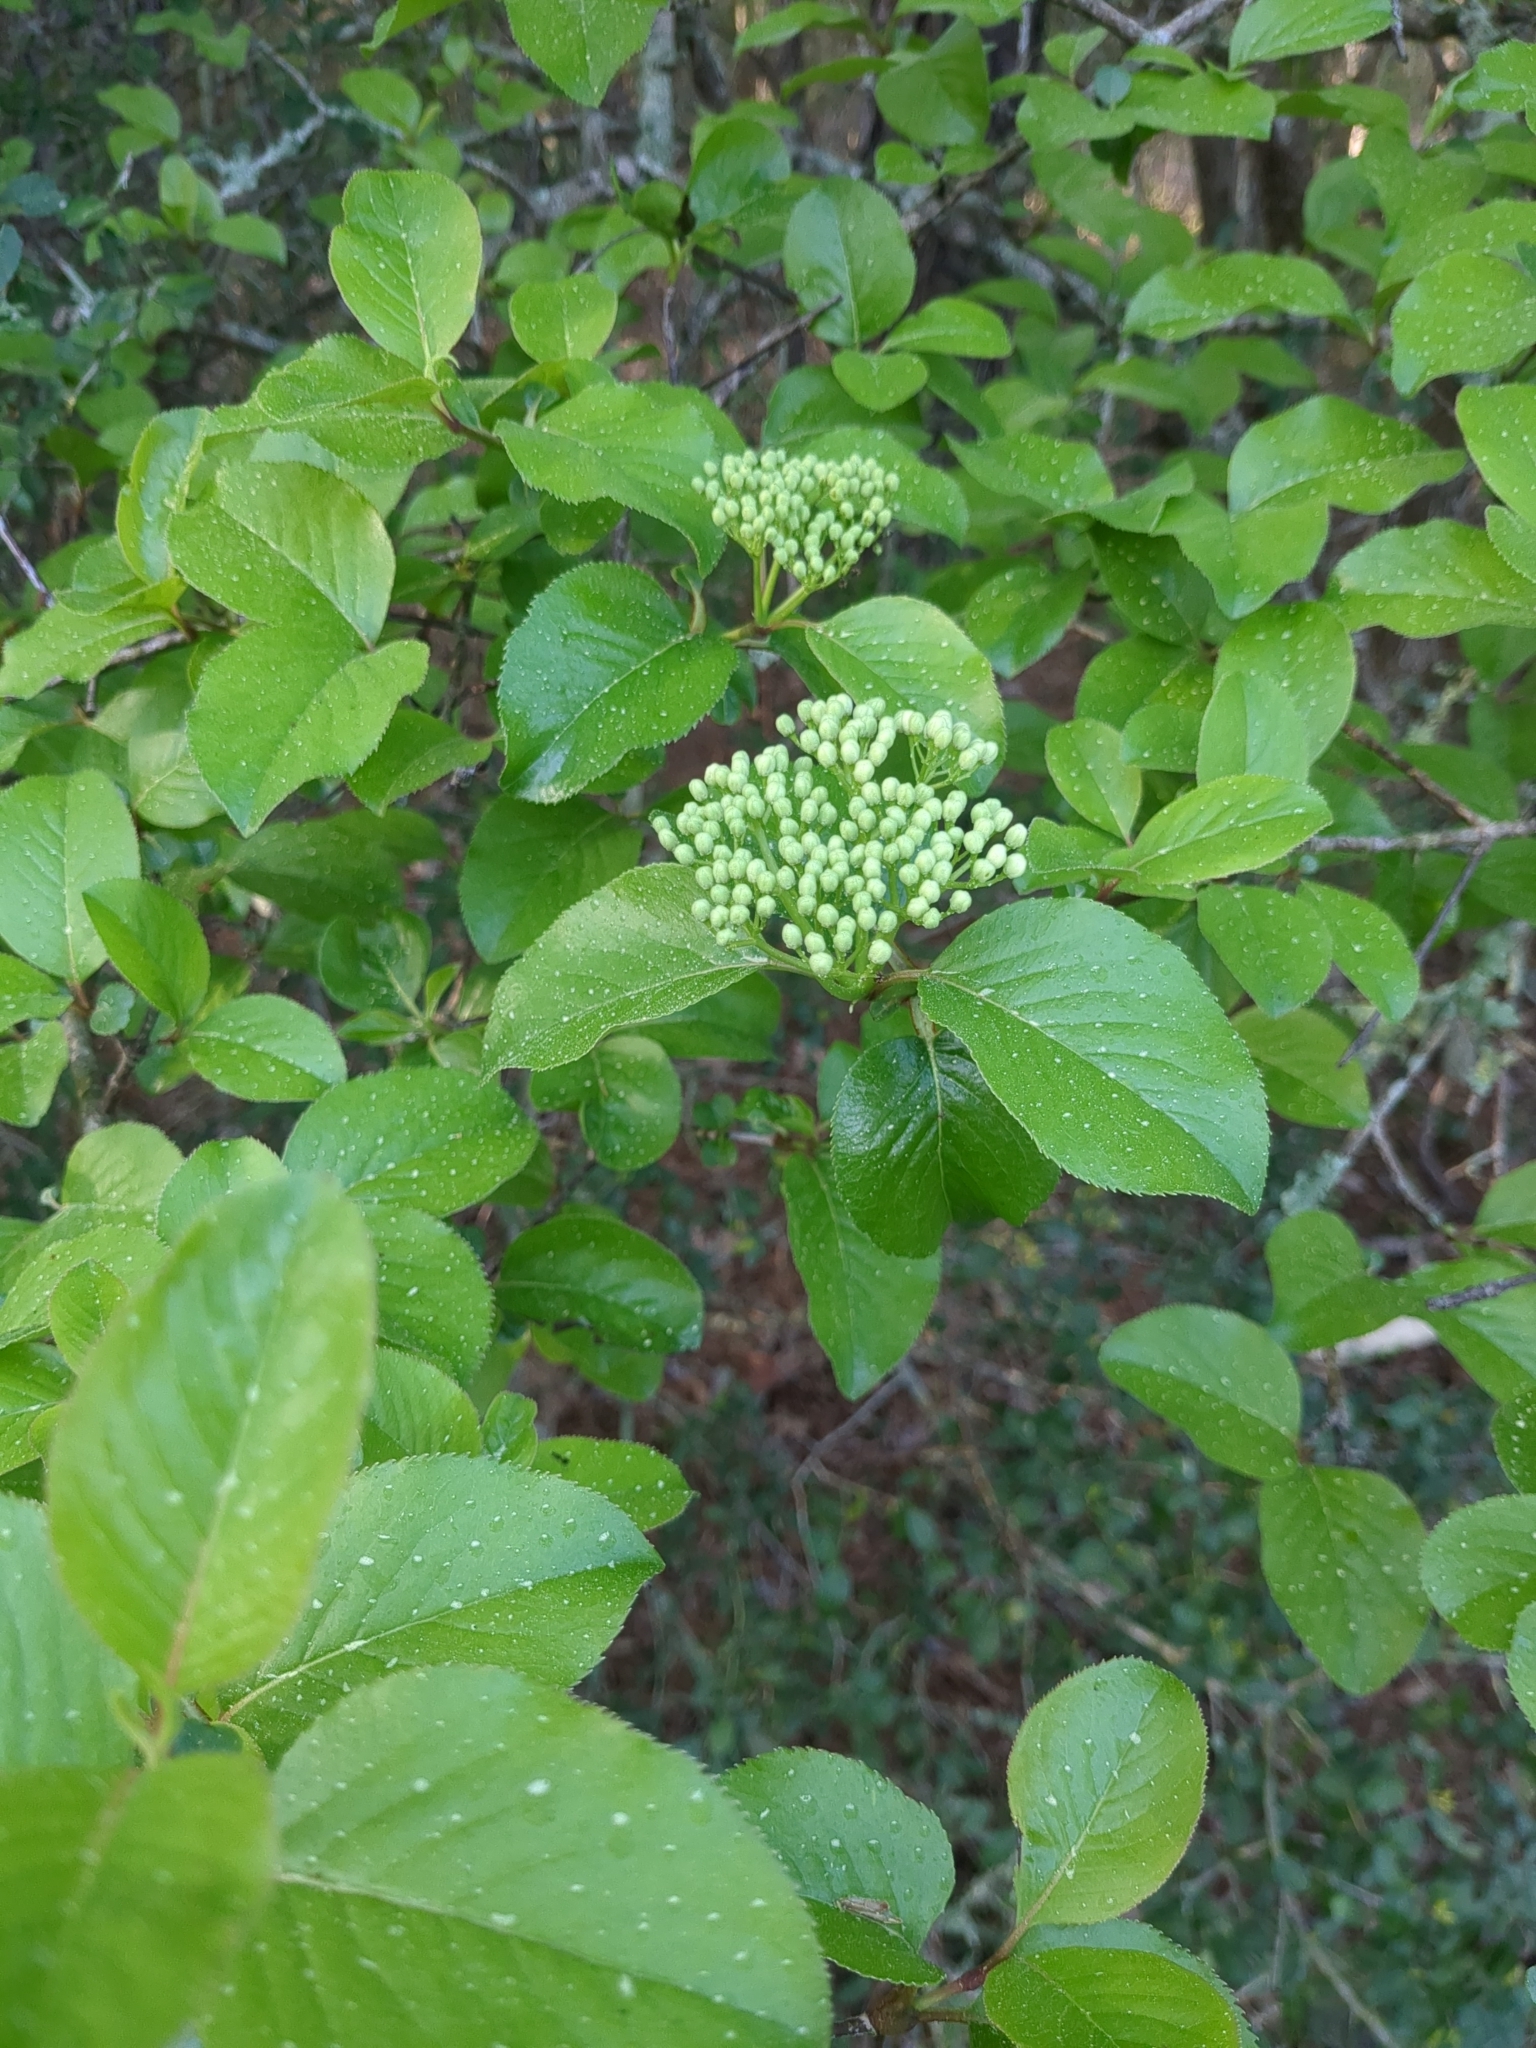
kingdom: Plantae
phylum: Tracheophyta
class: Magnoliopsida
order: Dipsacales
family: Viburnaceae
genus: Viburnum
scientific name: Viburnum rufidulum
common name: Blue haw
